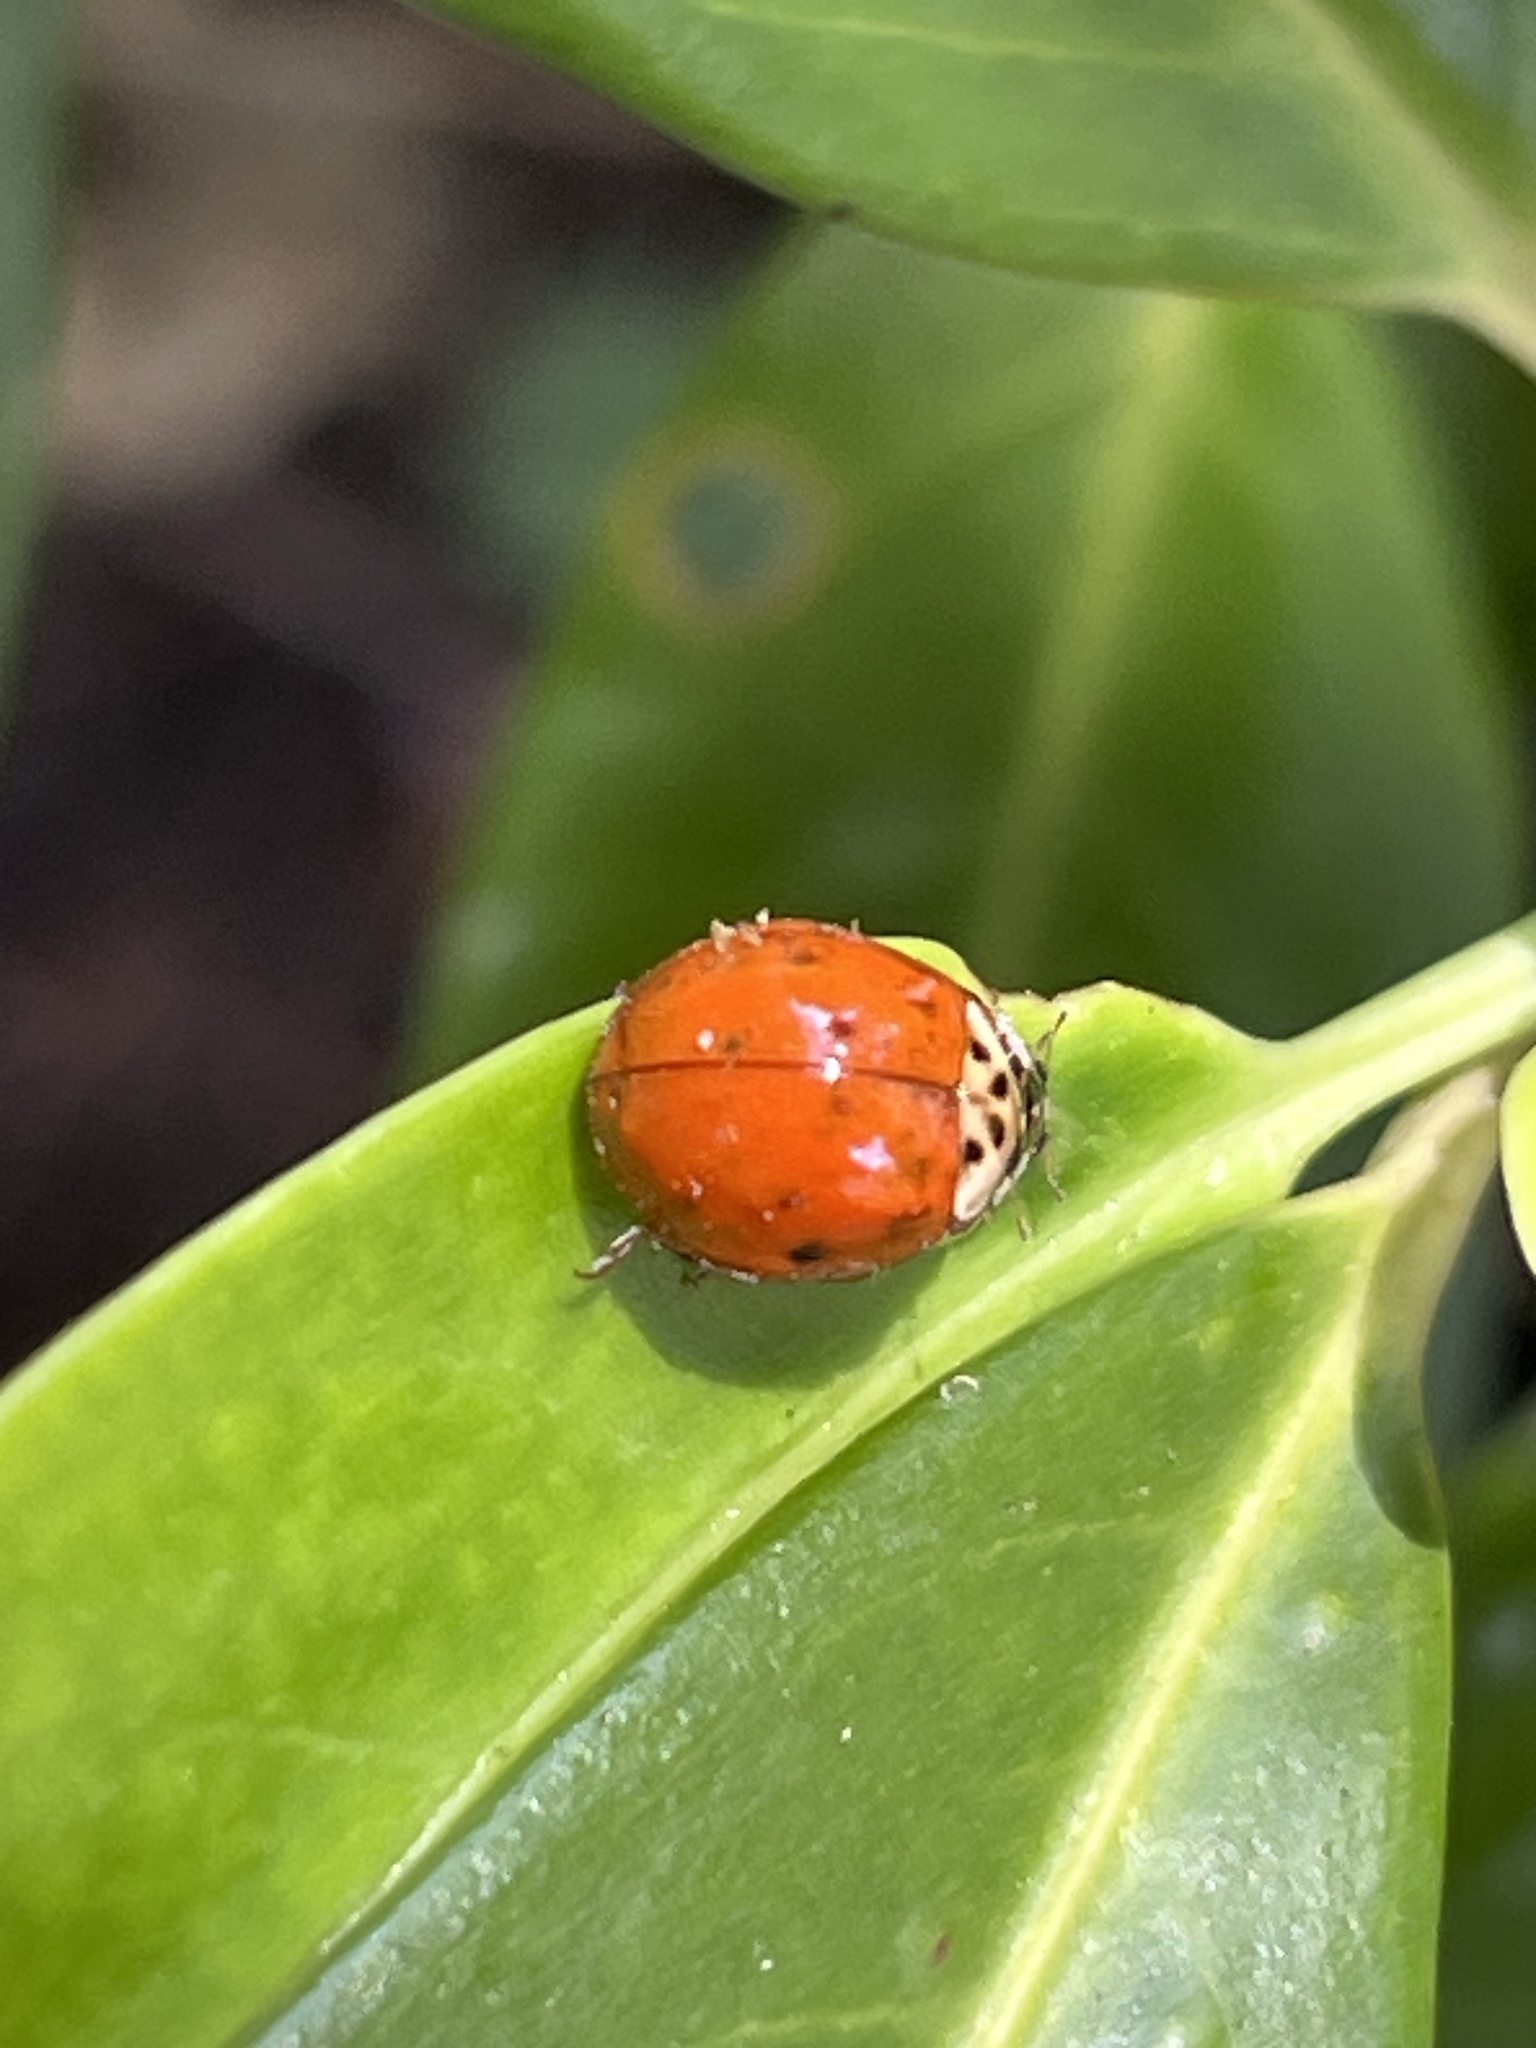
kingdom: Fungi
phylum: Ascomycota
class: Laboulbeniomycetes
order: Laboulbeniales
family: Laboulbeniaceae
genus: Hesperomyces
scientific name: Hesperomyces harmoniae
